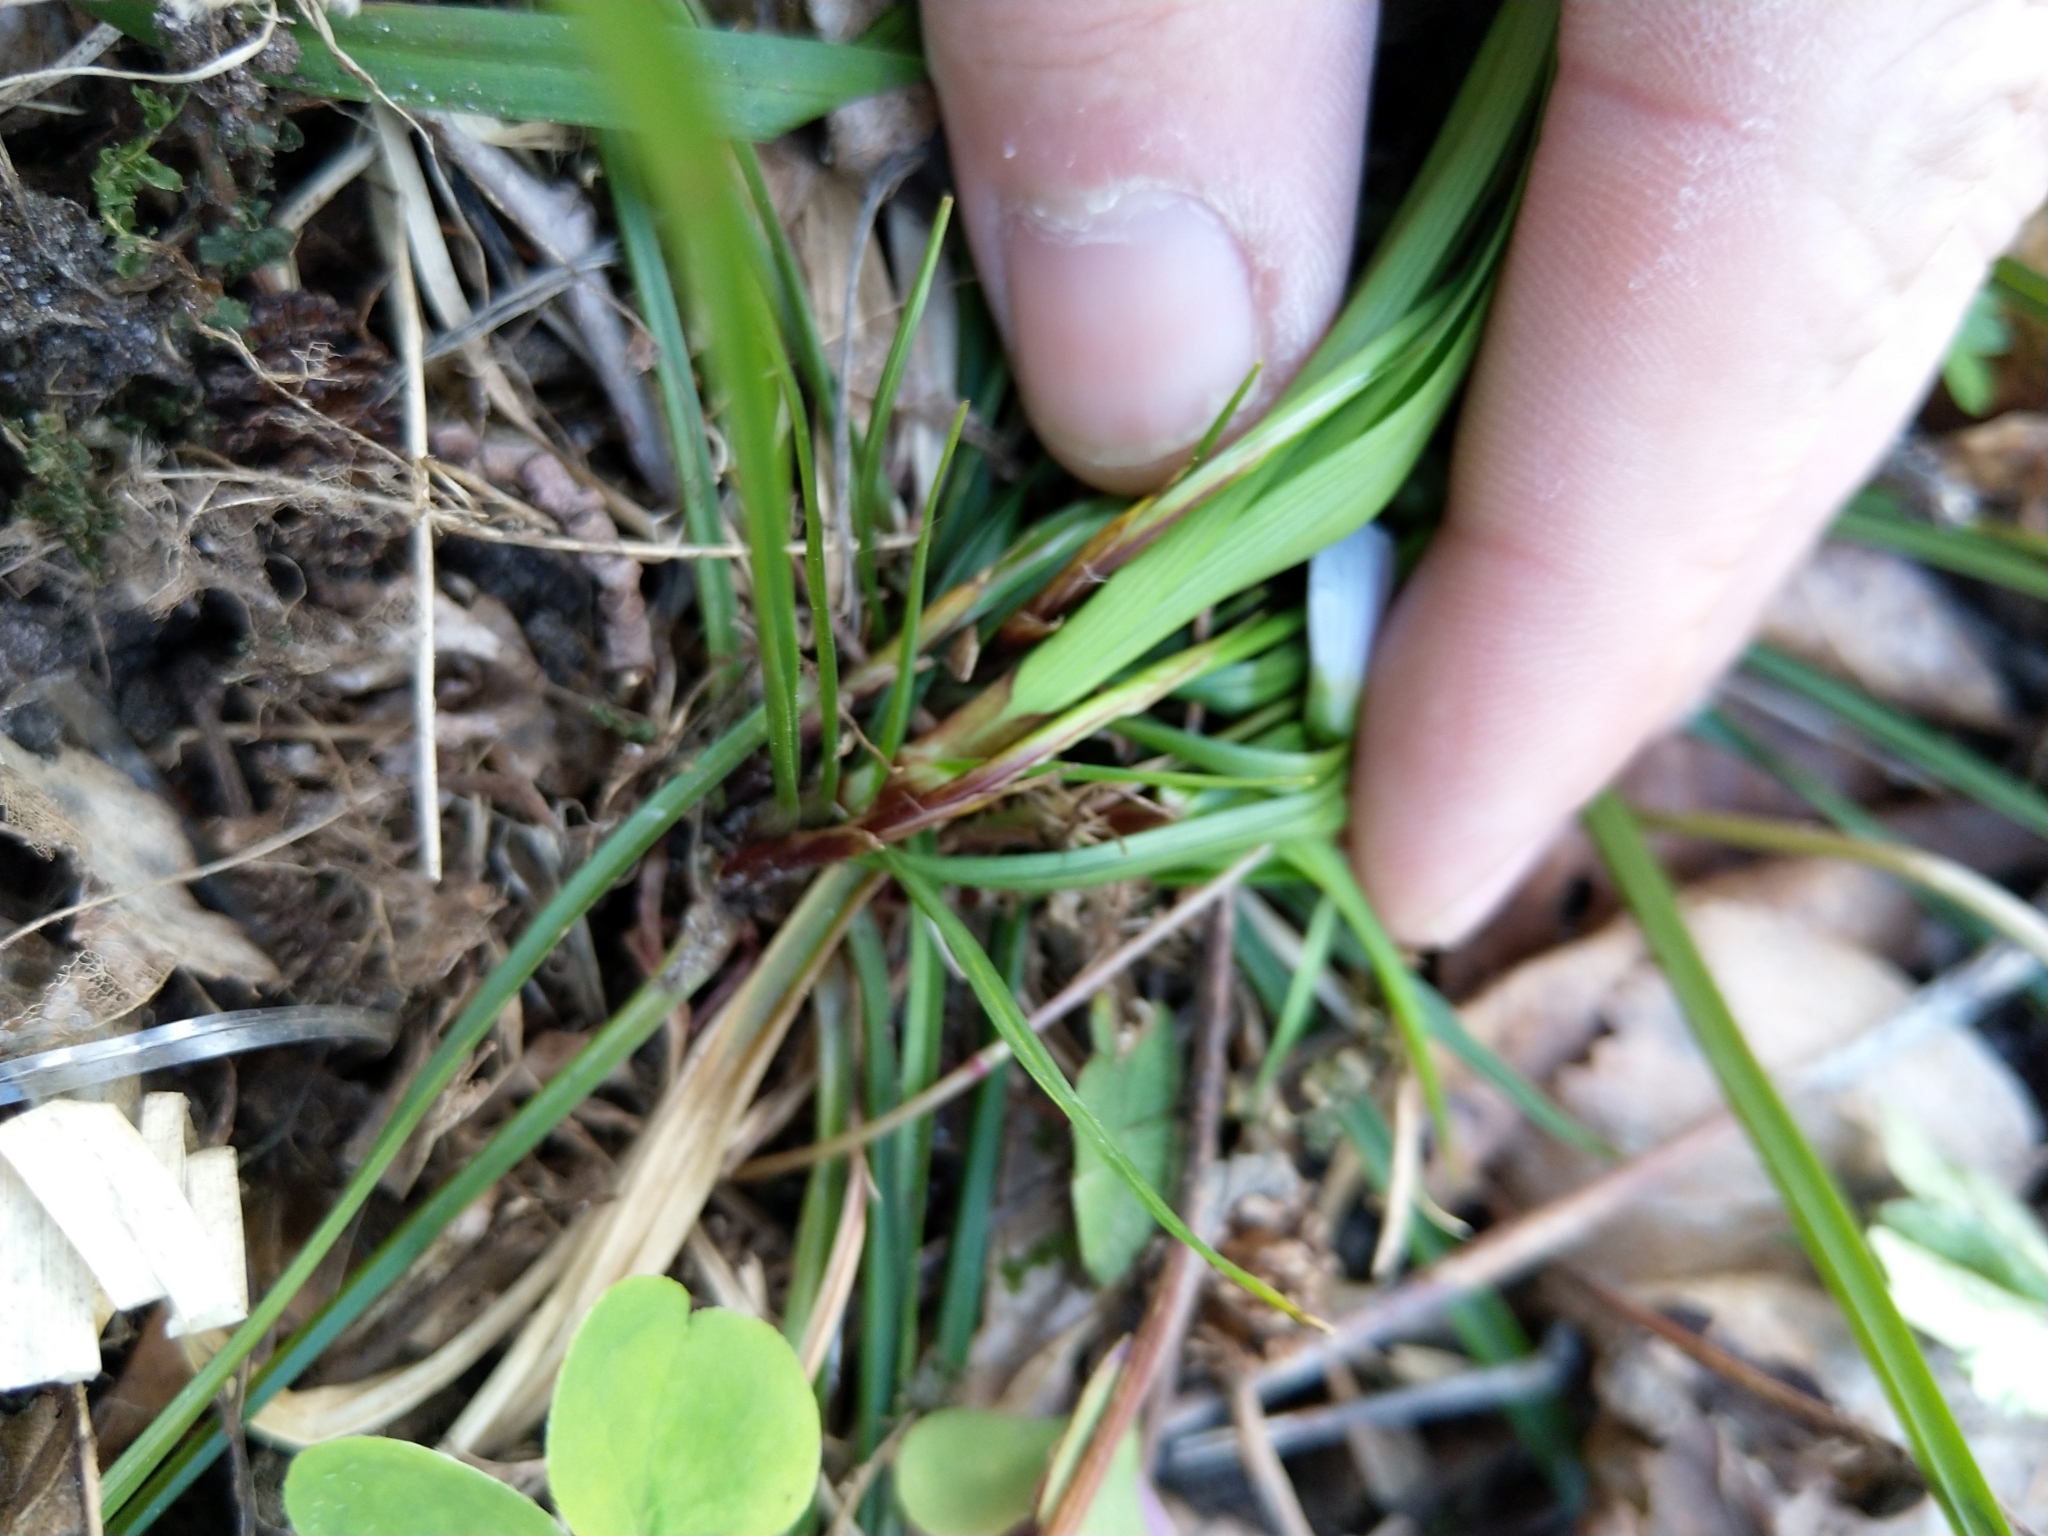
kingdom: Plantae
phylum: Tracheophyta
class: Liliopsida
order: Poales
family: Cyperaceae
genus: Carex
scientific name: Carex digitata
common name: Fingered sedge
